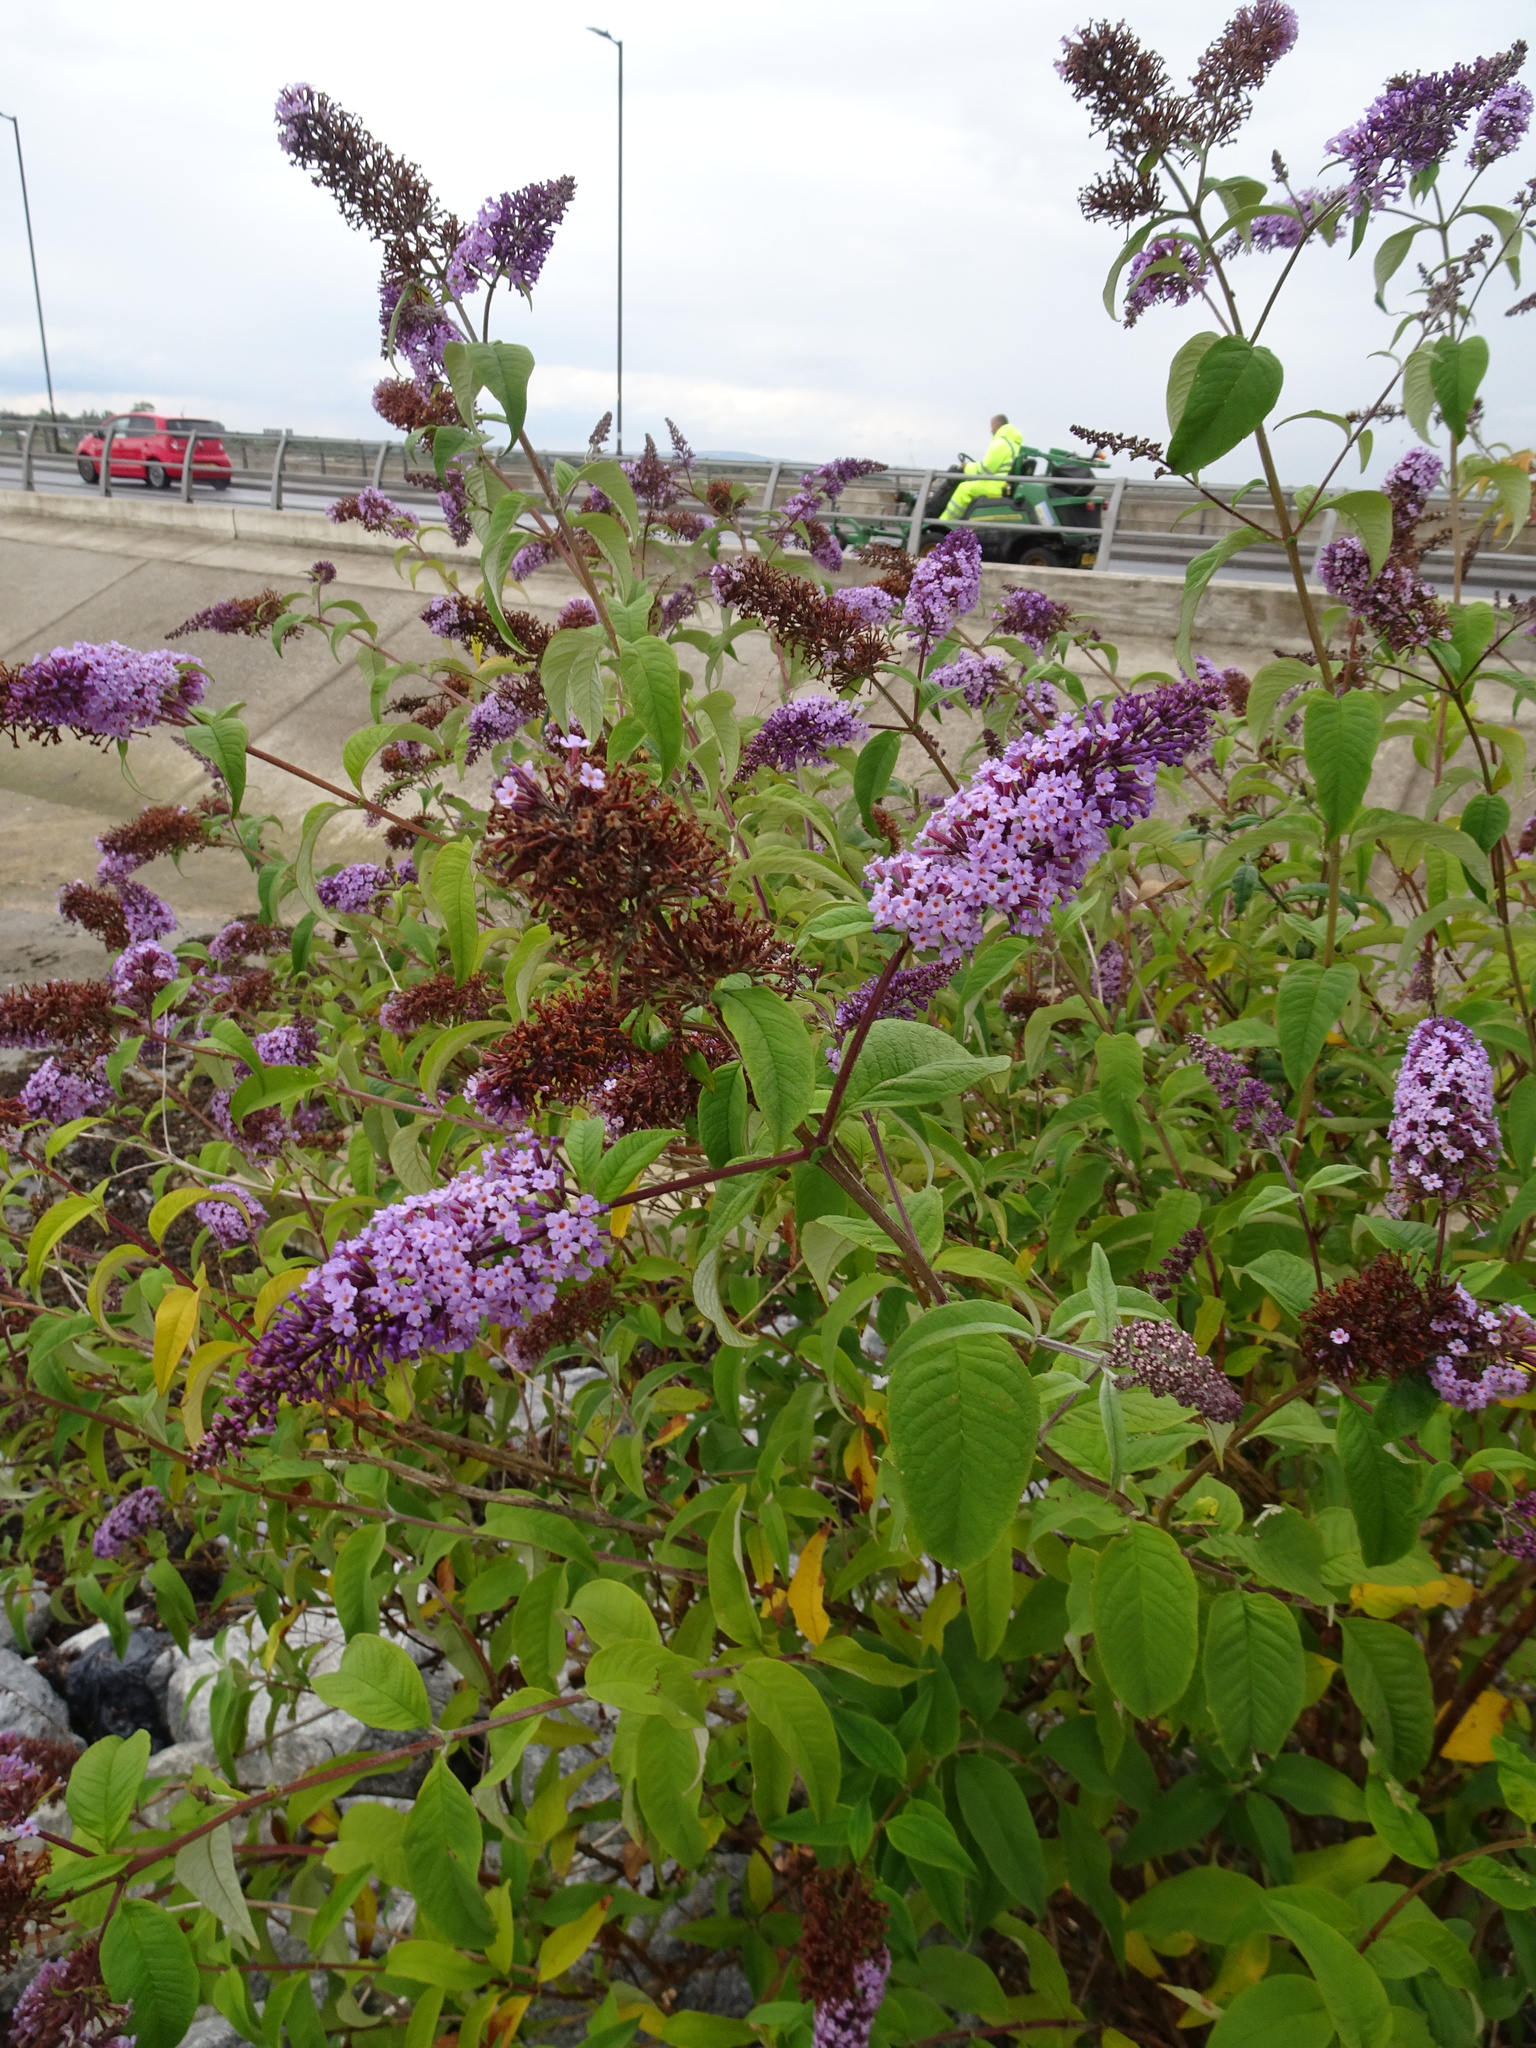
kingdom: Plantae
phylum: Tracheophyta
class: Magnoliopsida
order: Lamiales
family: Scrophulariaceae
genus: Buddleja
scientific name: Buddleja davidii
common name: Butterfly-bush
